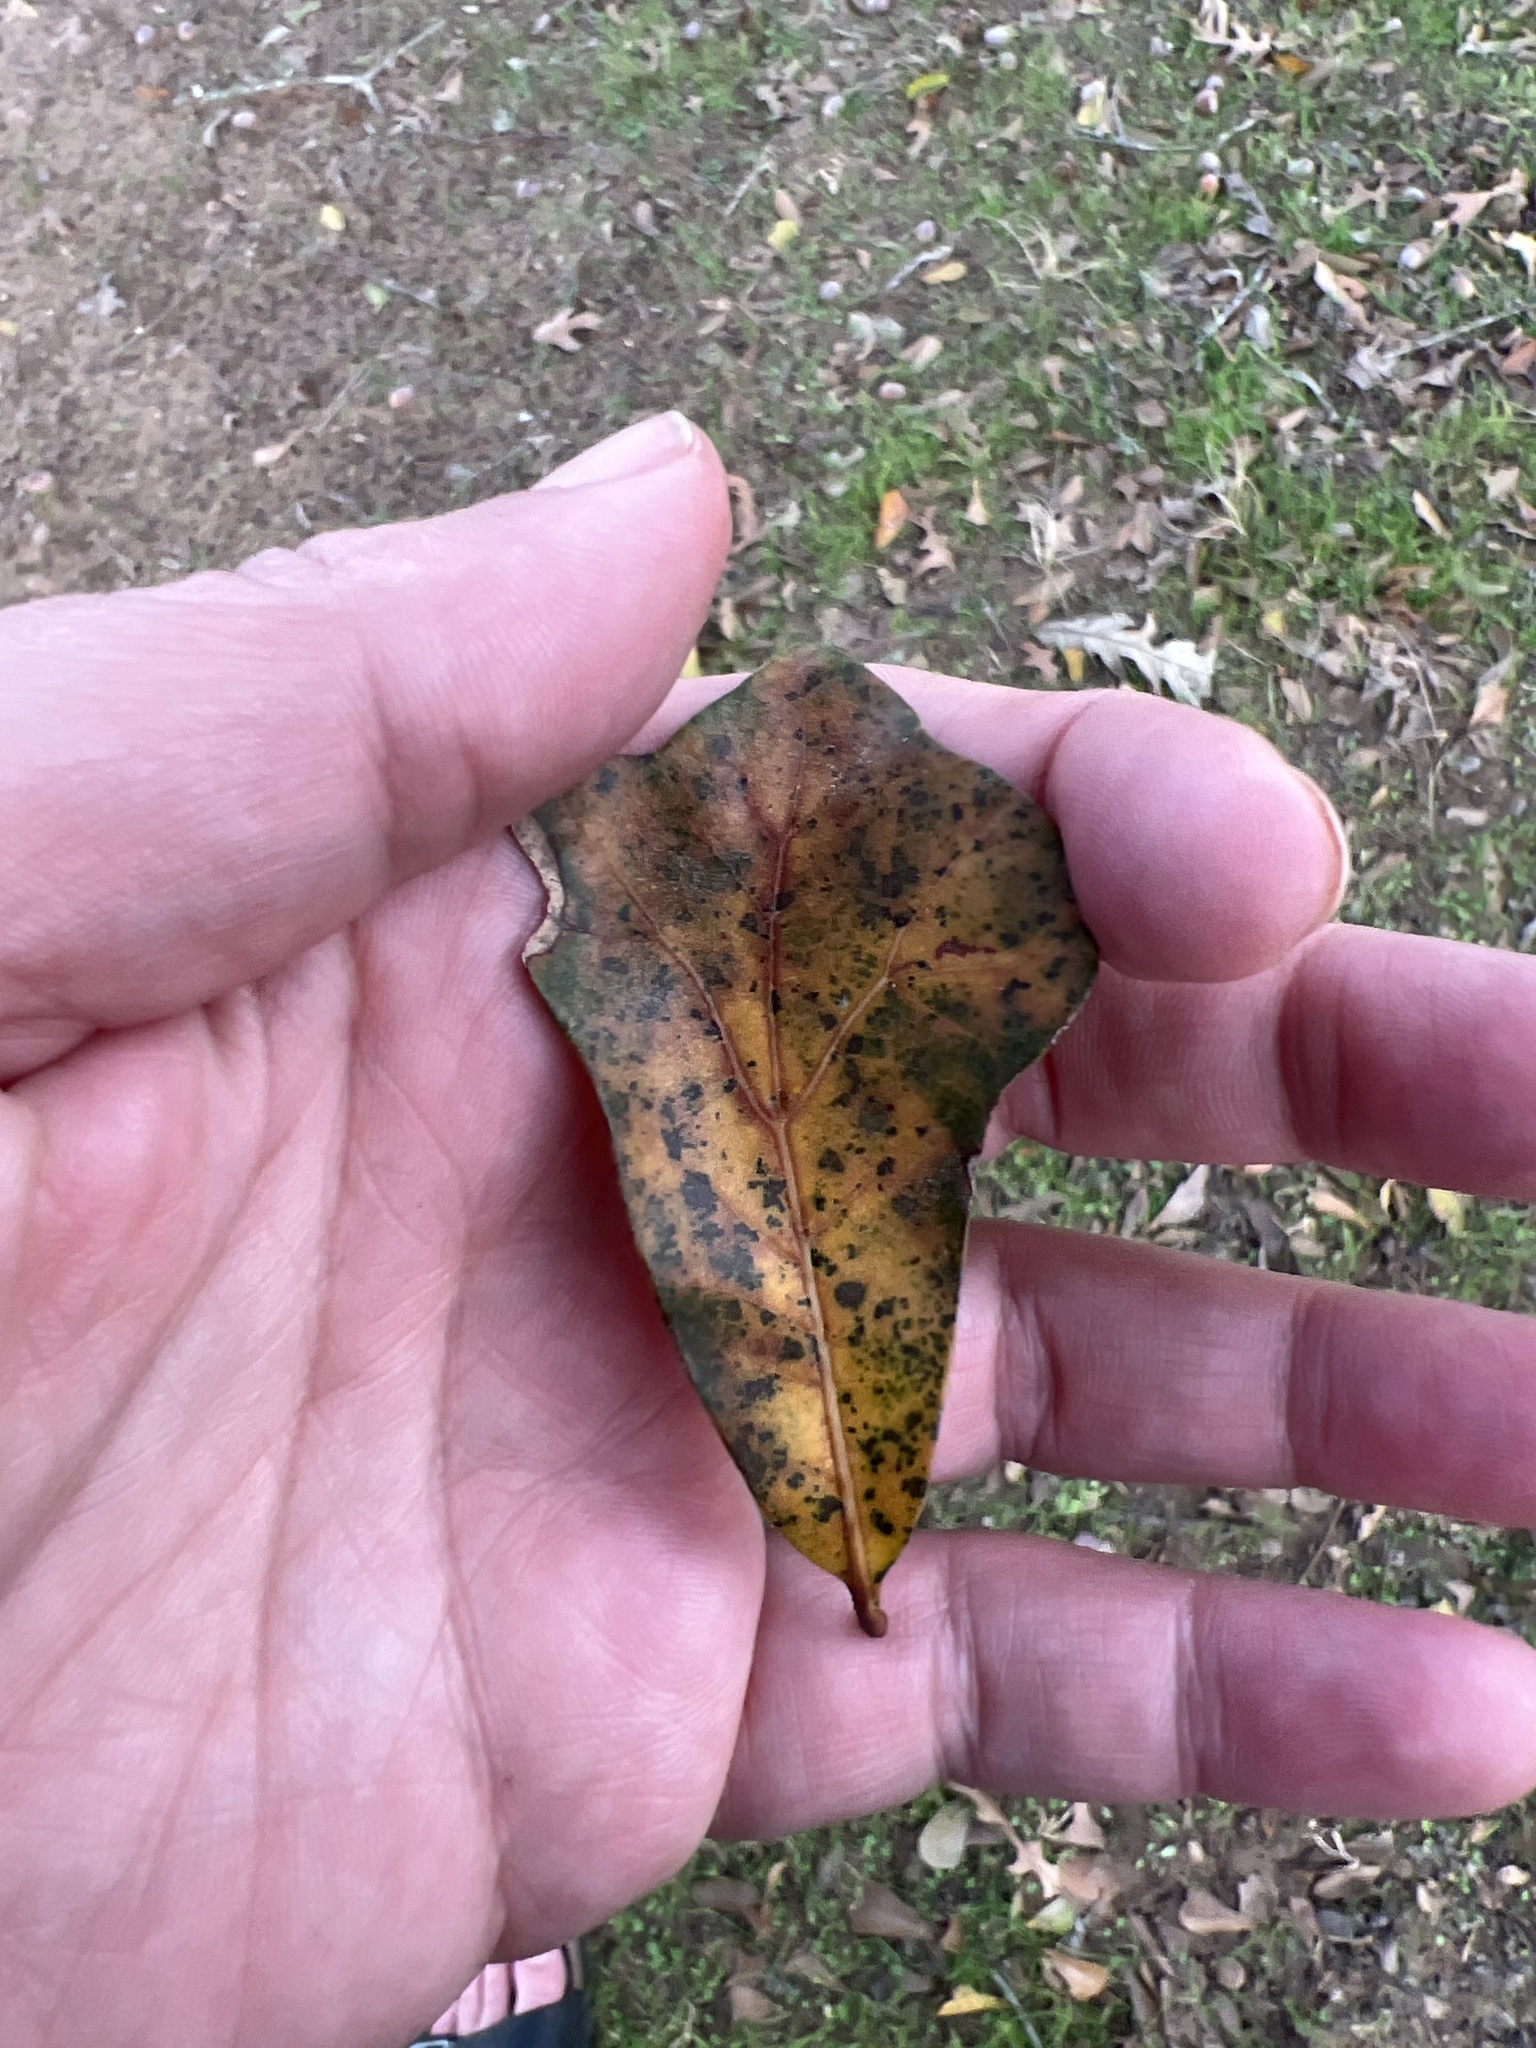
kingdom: Plantae
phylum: Tracheophyta
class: Magnoliopsida
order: Fagales
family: Fagaceae
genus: Quercus
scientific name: Quercus nigra
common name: Water oak
